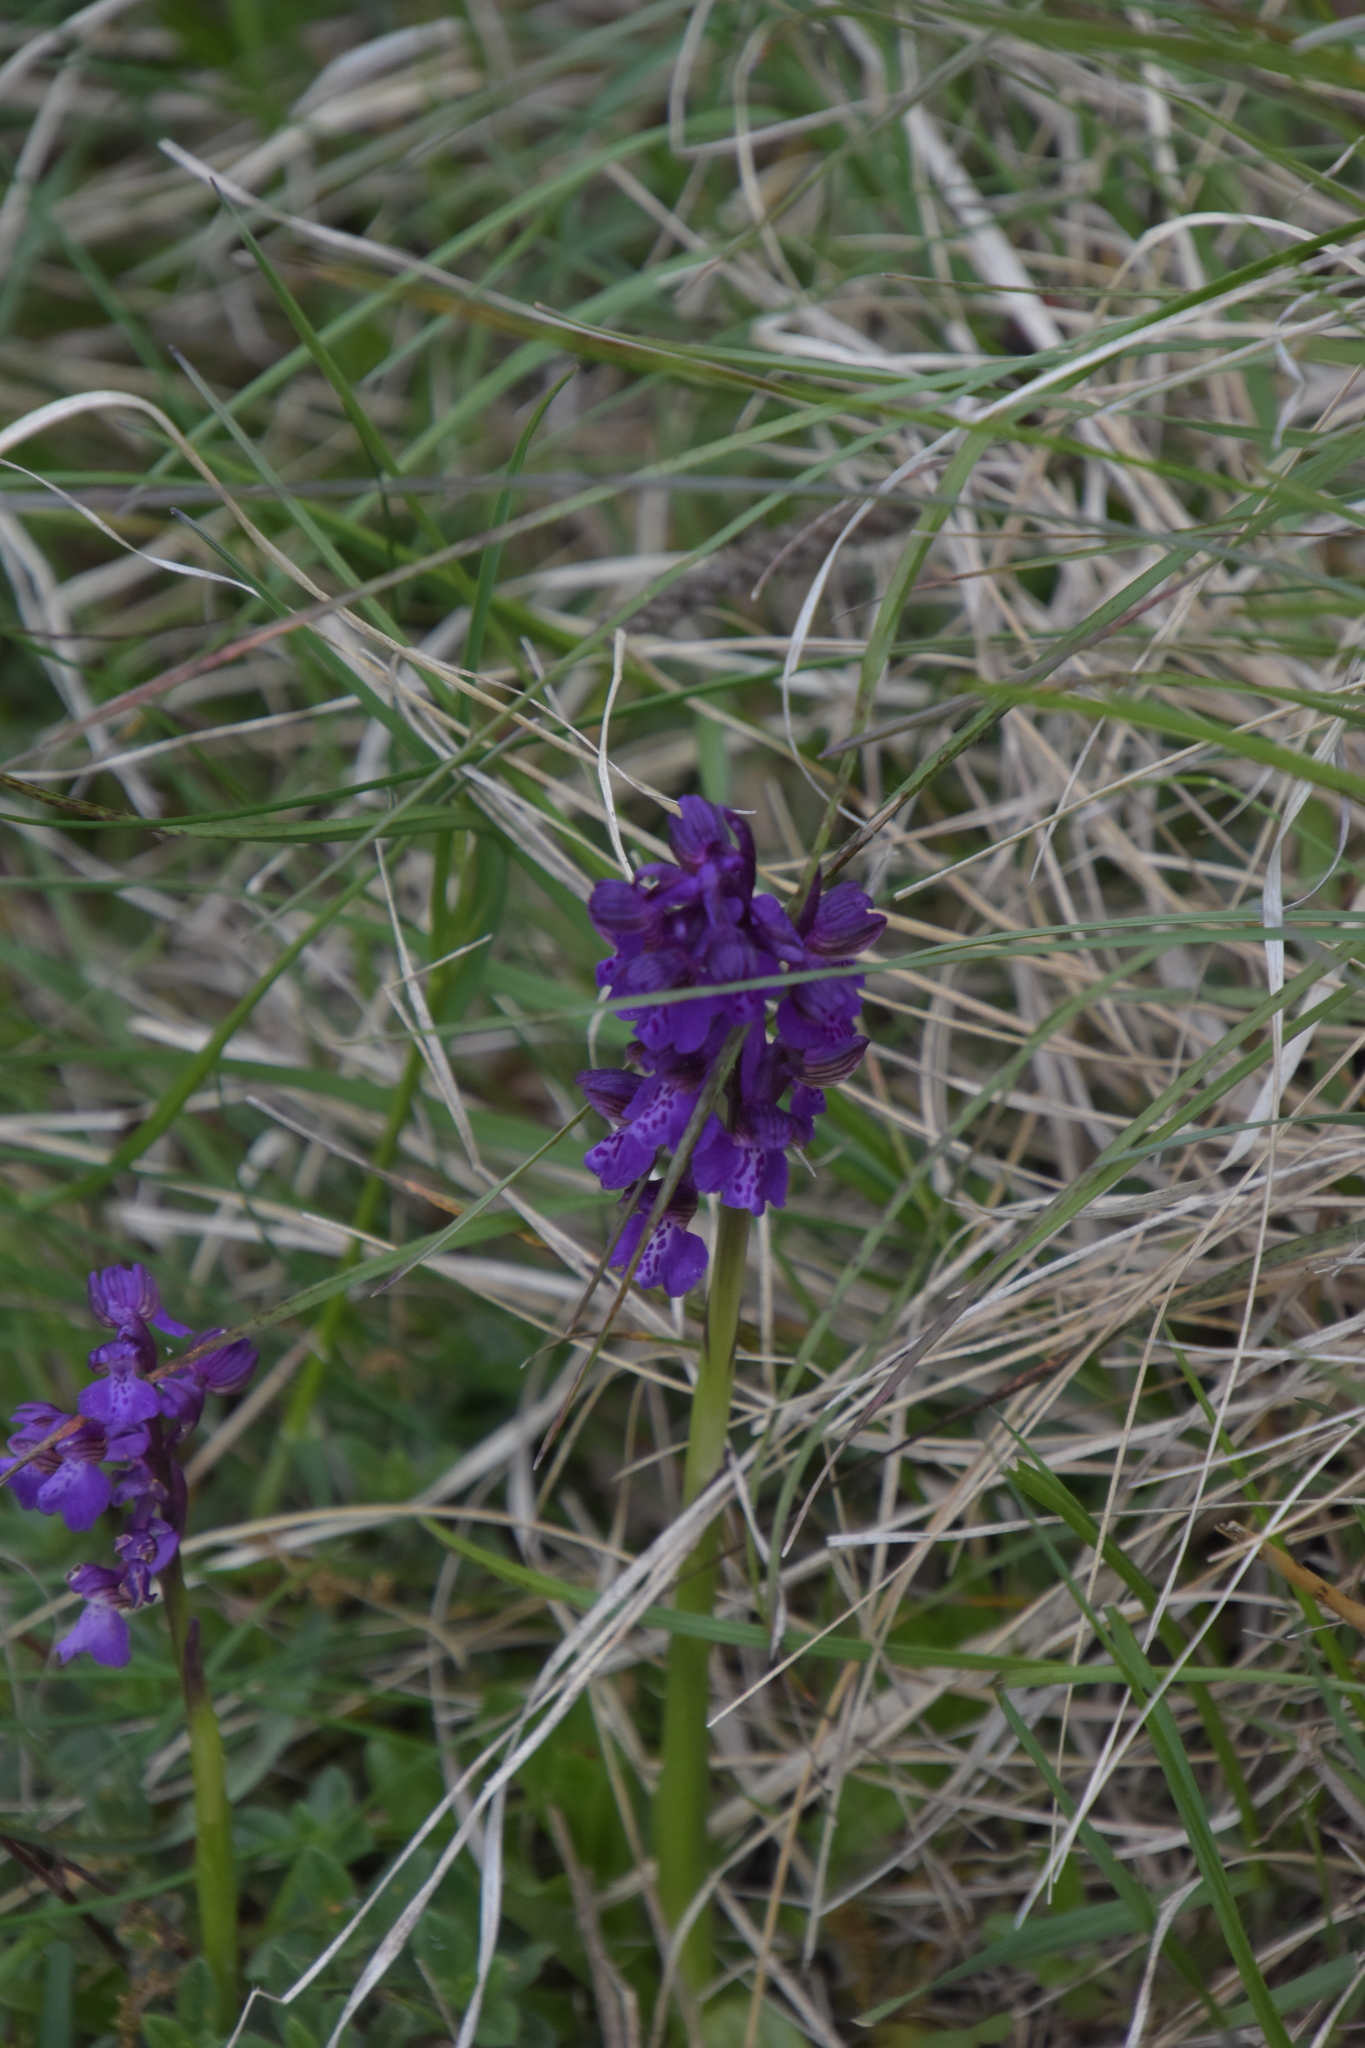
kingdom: Plantae
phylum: Tracheophyta
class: Liliopsida
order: Asparagales
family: Orchidaceae
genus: Anacamptis
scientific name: Anacamptis morio
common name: Green-winged orchid
